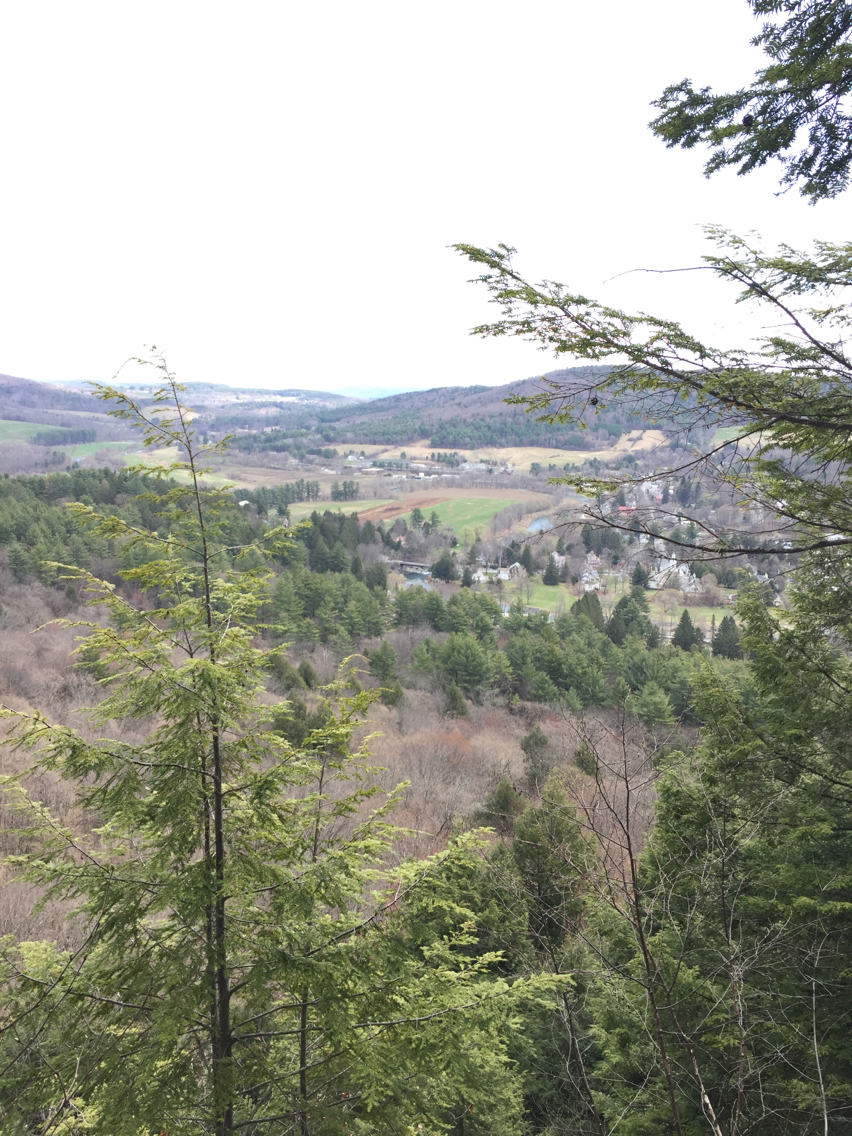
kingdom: Plantae
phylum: Tracheophyta
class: Pinopsida
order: Pinales
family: Pinaceae
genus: Tsuga
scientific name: Tsuga canadensis
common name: Eastern hemlock
